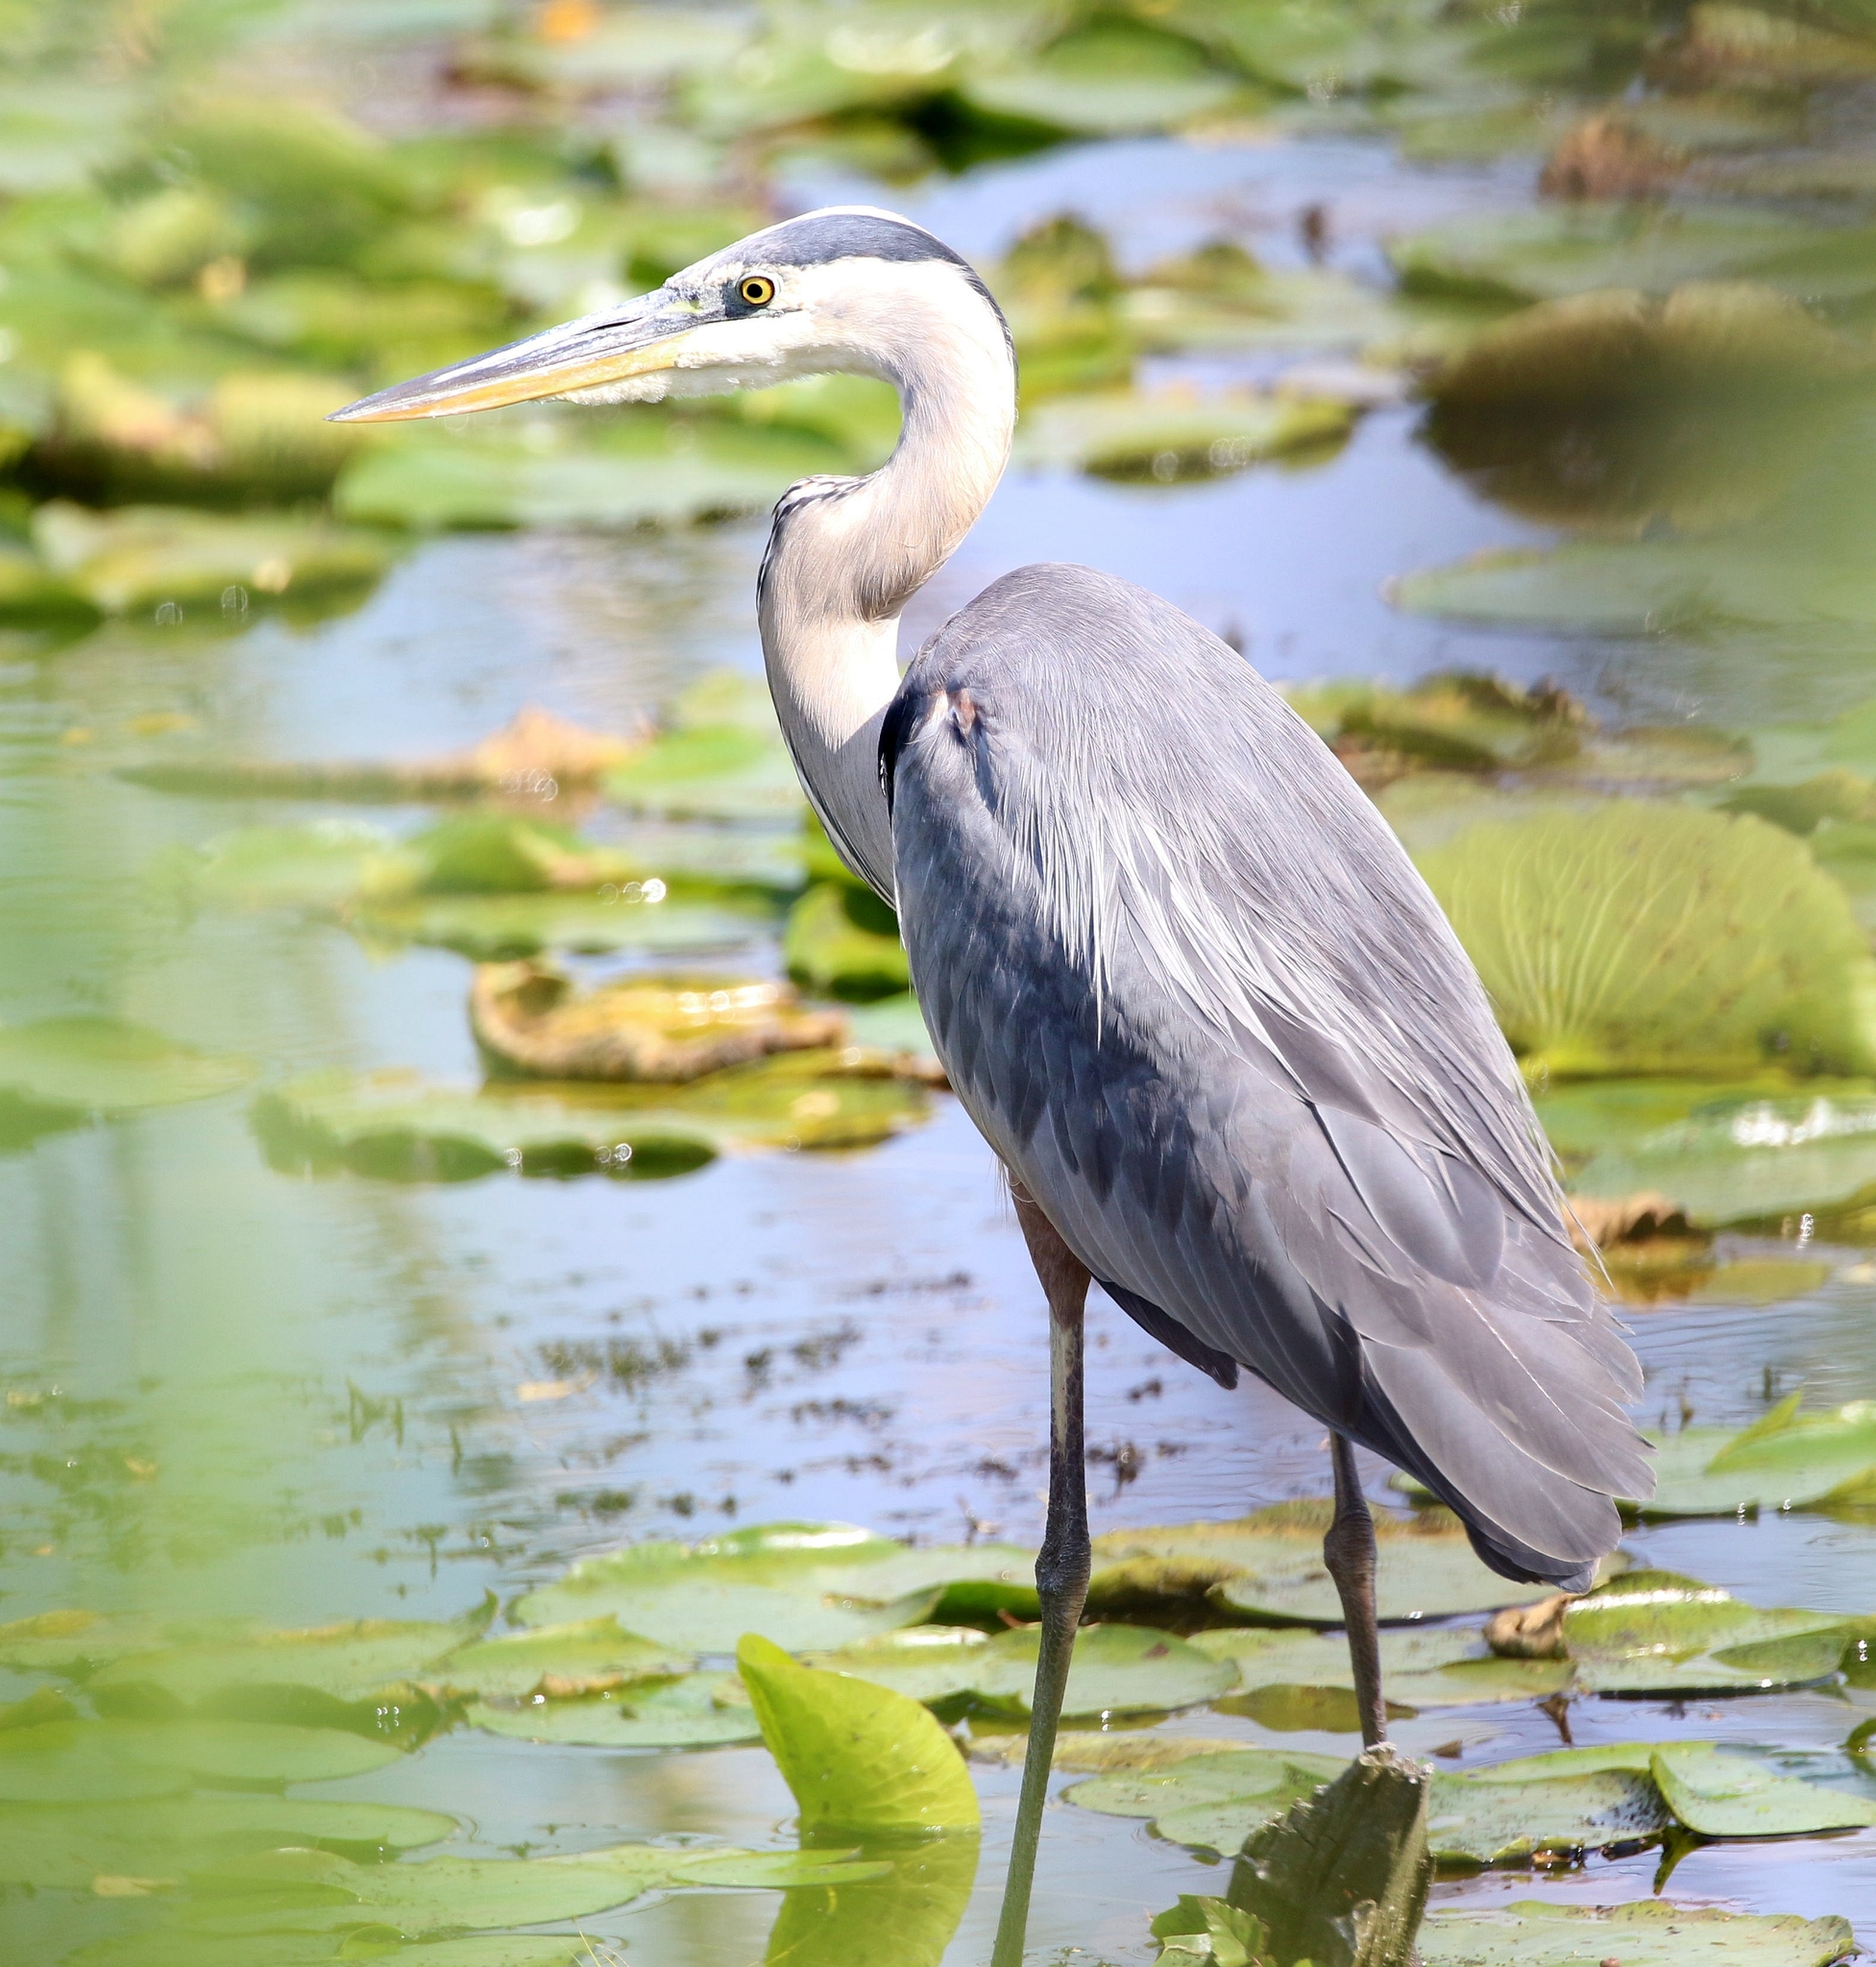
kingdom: Animalia
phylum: Chordata
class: Aves
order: Pelecaniformes
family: Ardeidae
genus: Ardea
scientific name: Ardea herodias
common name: Great blue heron
